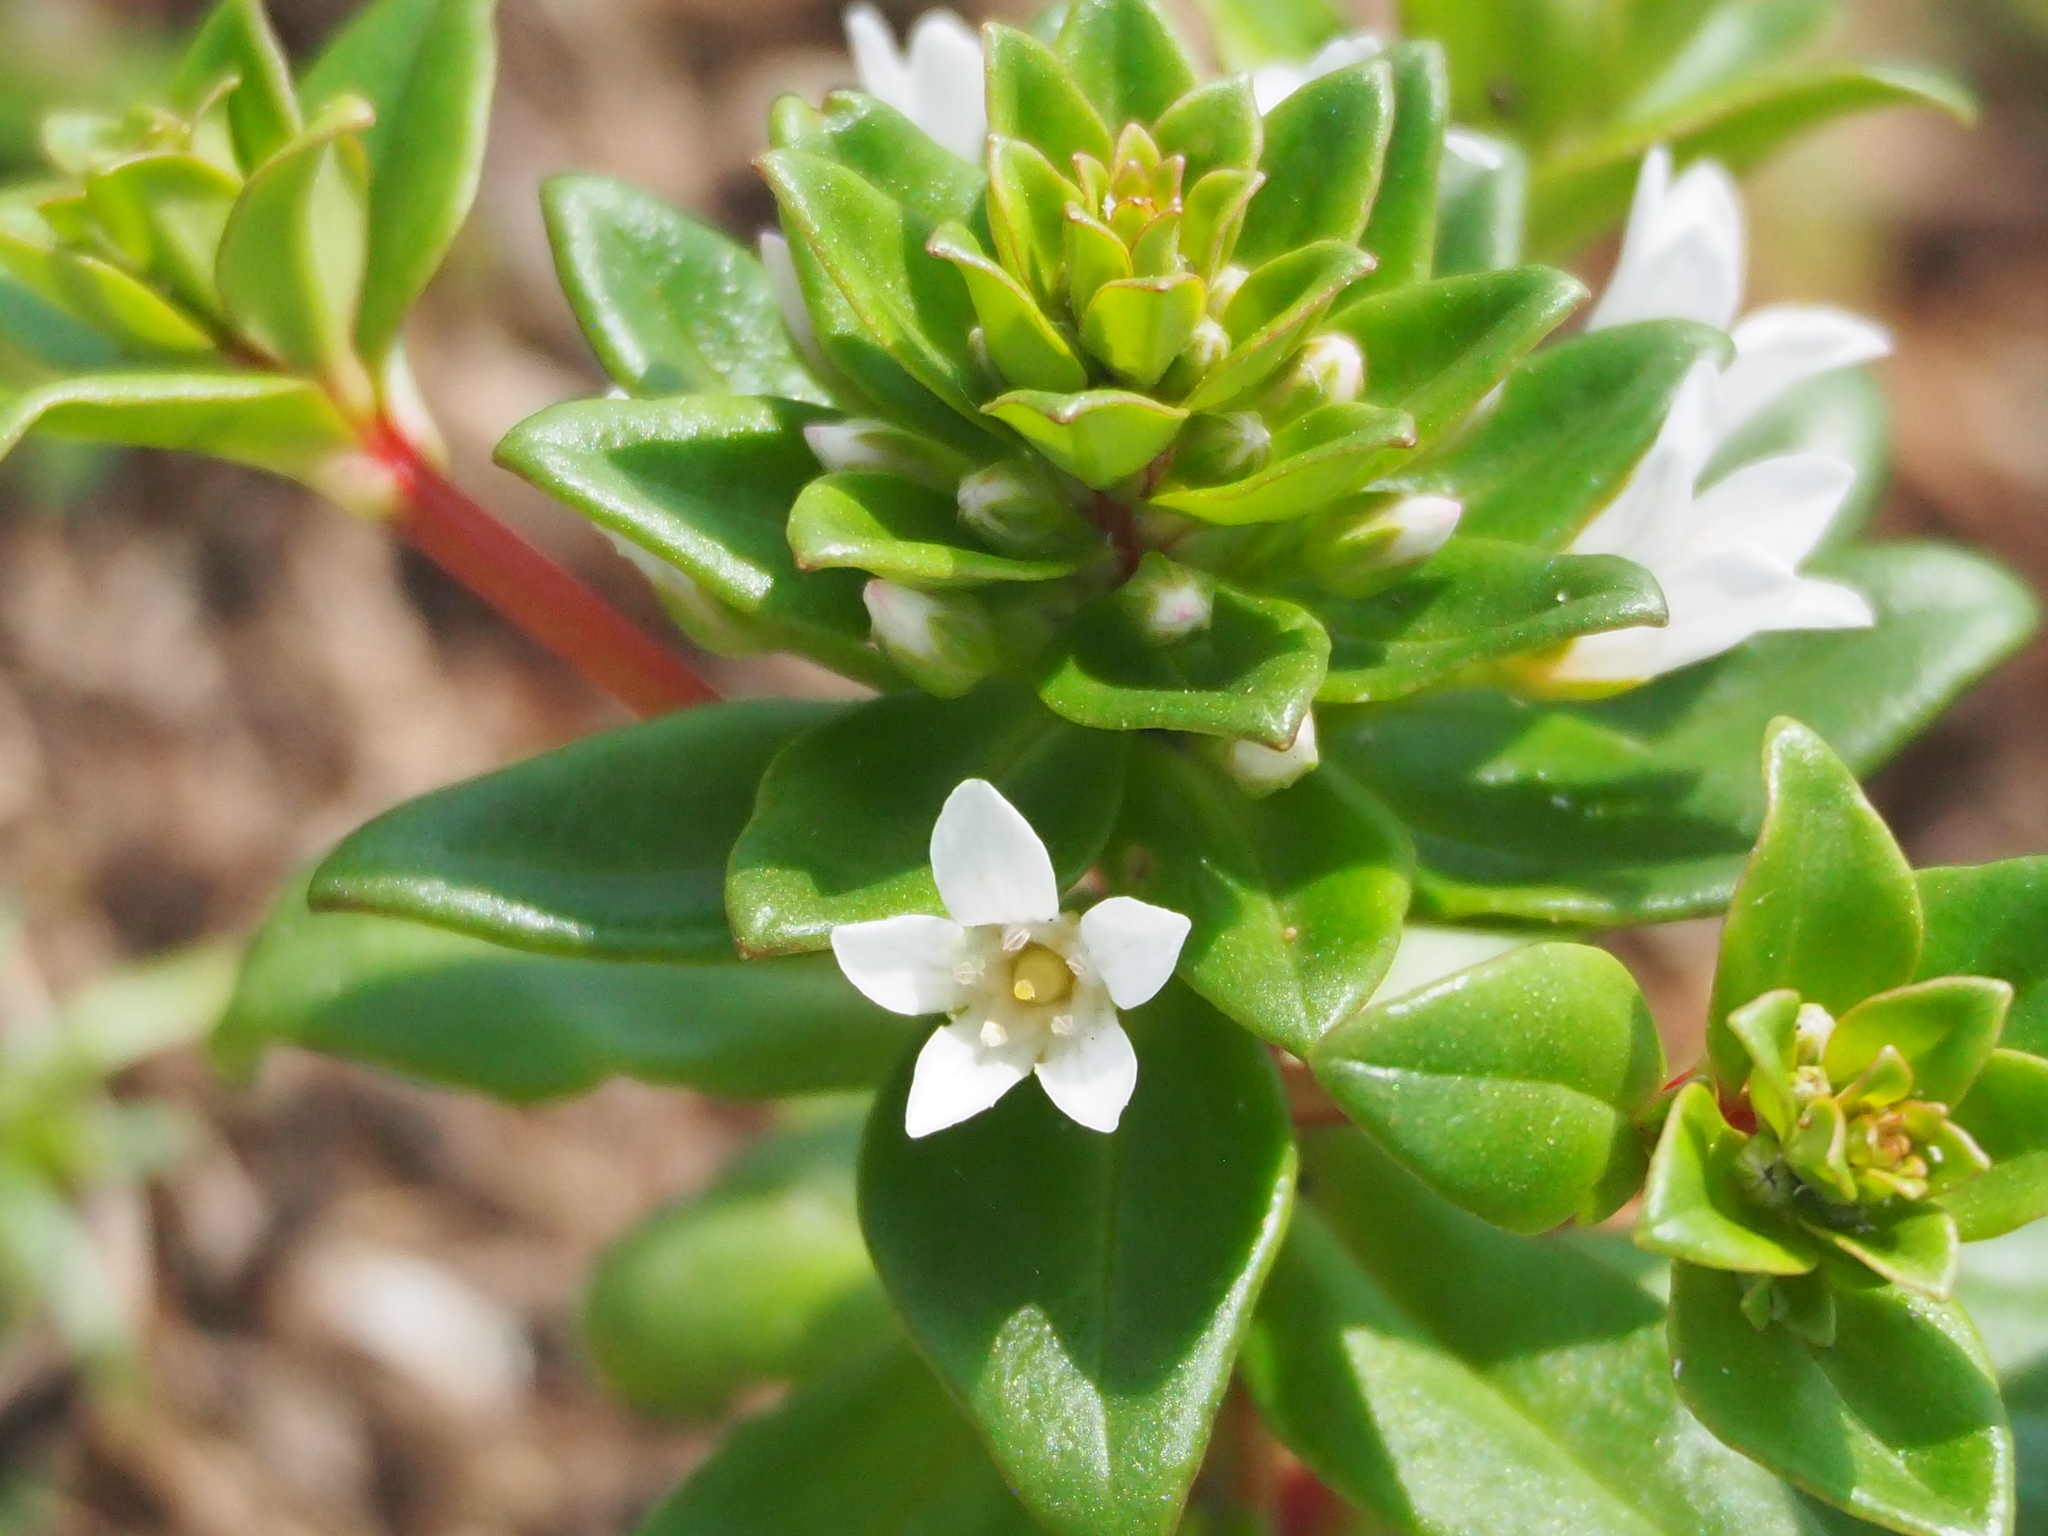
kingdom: Plantae
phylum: Tracheophyta
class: Magnoliopsida
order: Ericales
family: Primulaceae
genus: Lysimachia
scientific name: Lysimachia mauritiana
